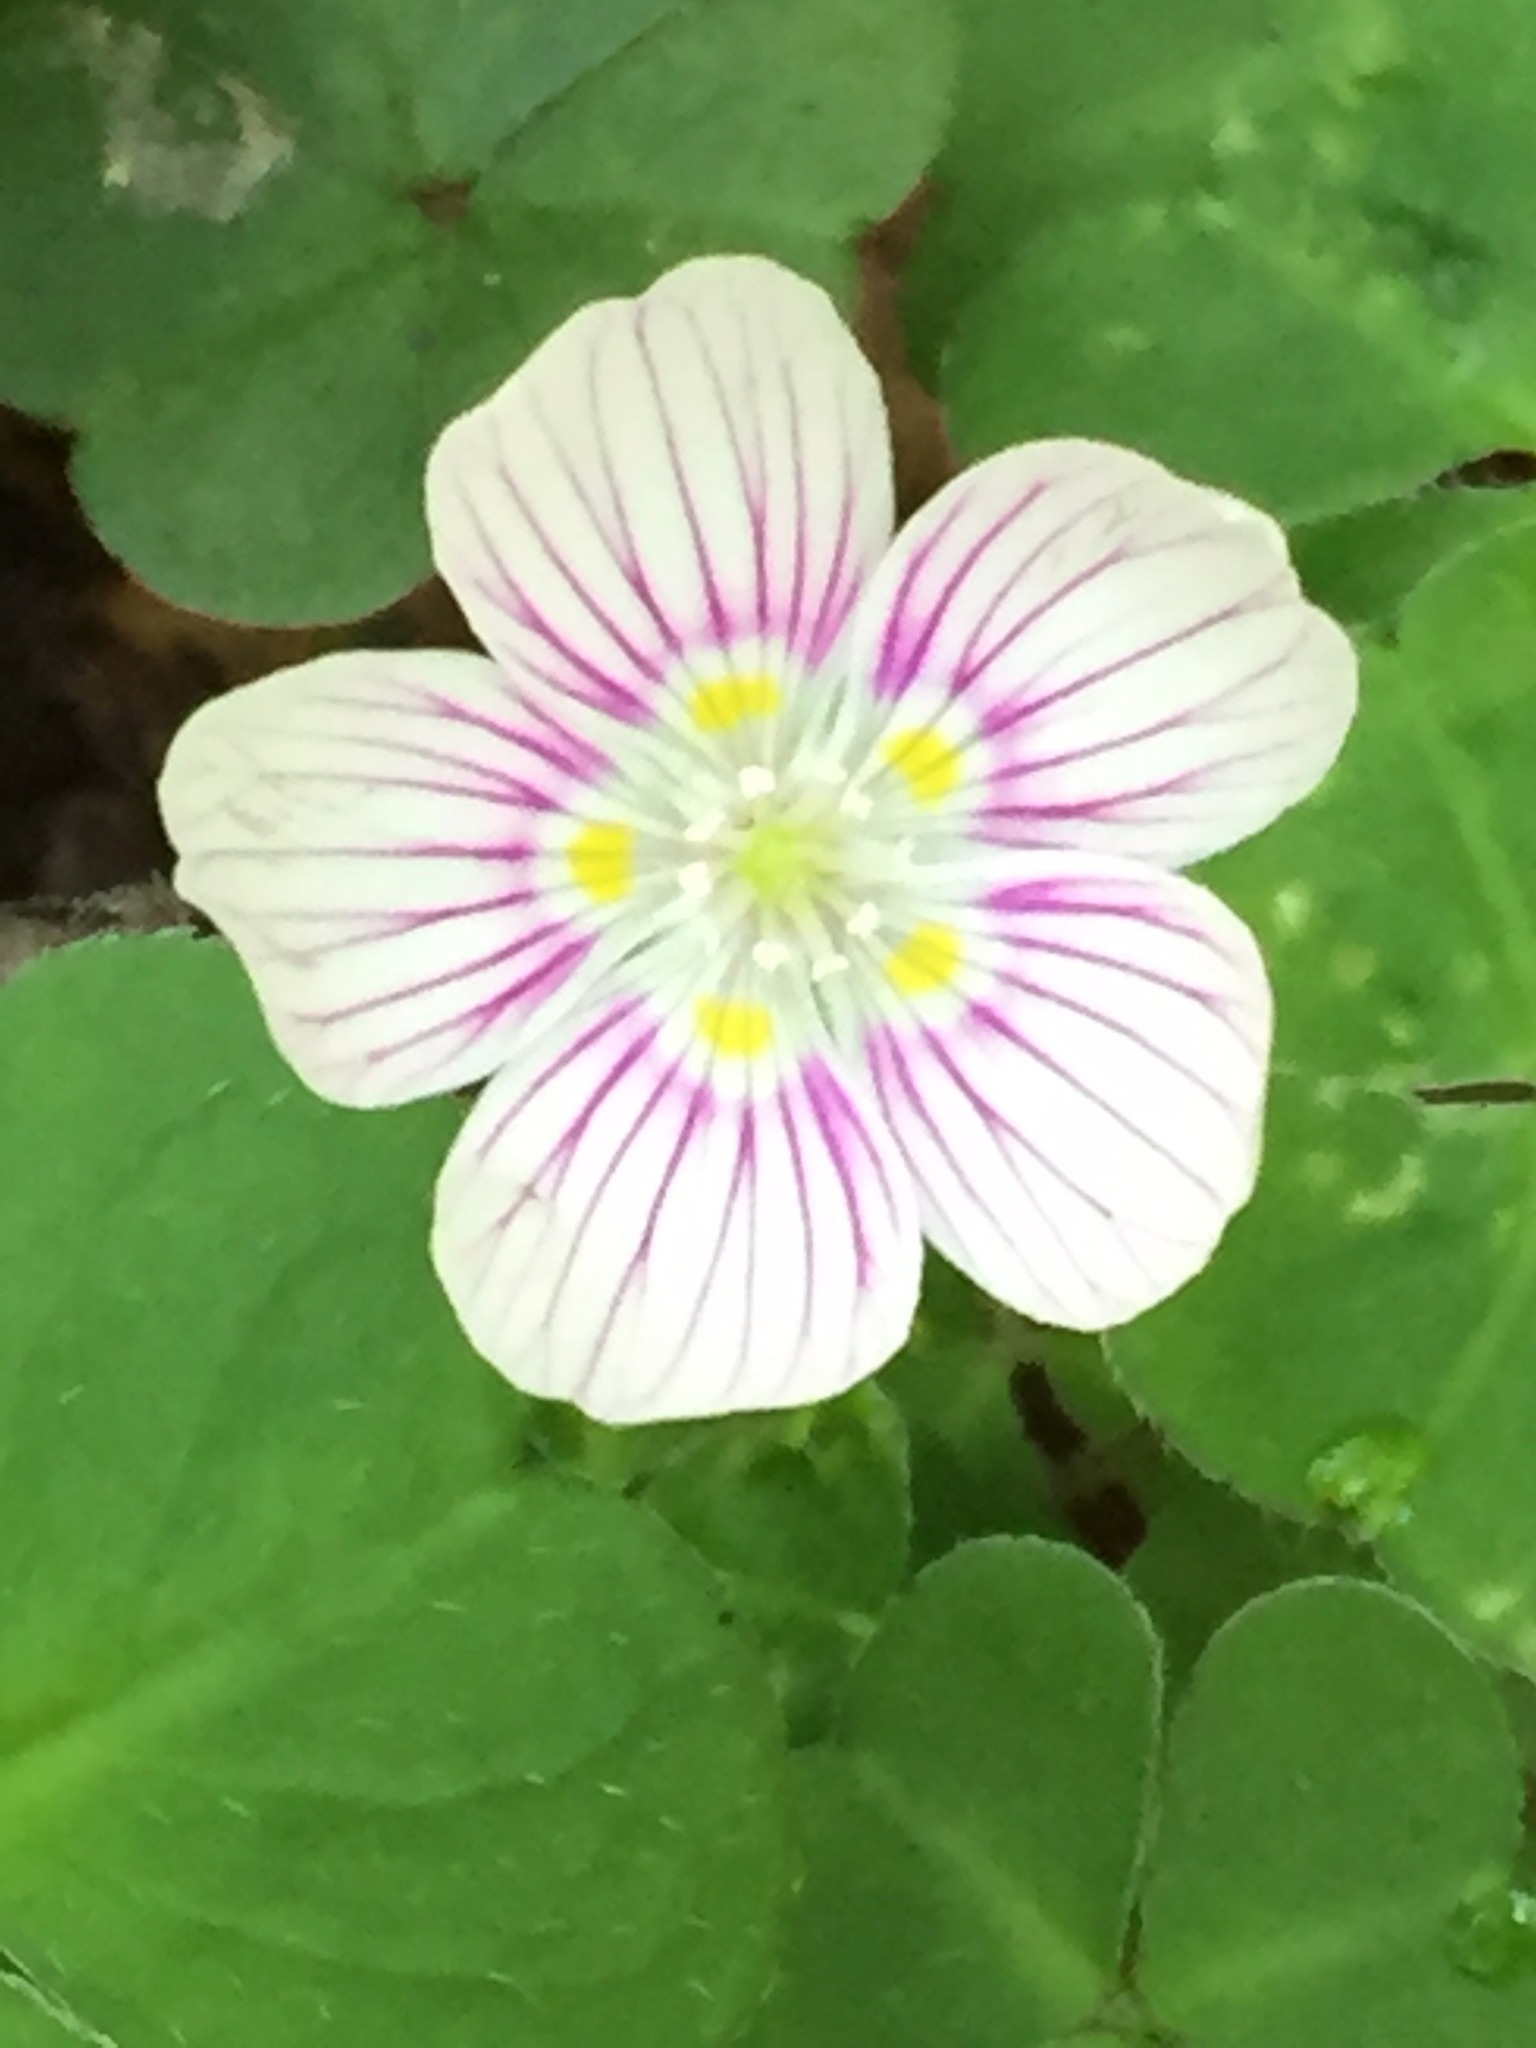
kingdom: Plantae
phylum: Tracheophyta
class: Magnoliopsida
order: Oxalidales
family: Oxalidaceae
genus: Oxalis
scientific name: Oxalis montana
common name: American wood-sorrel
